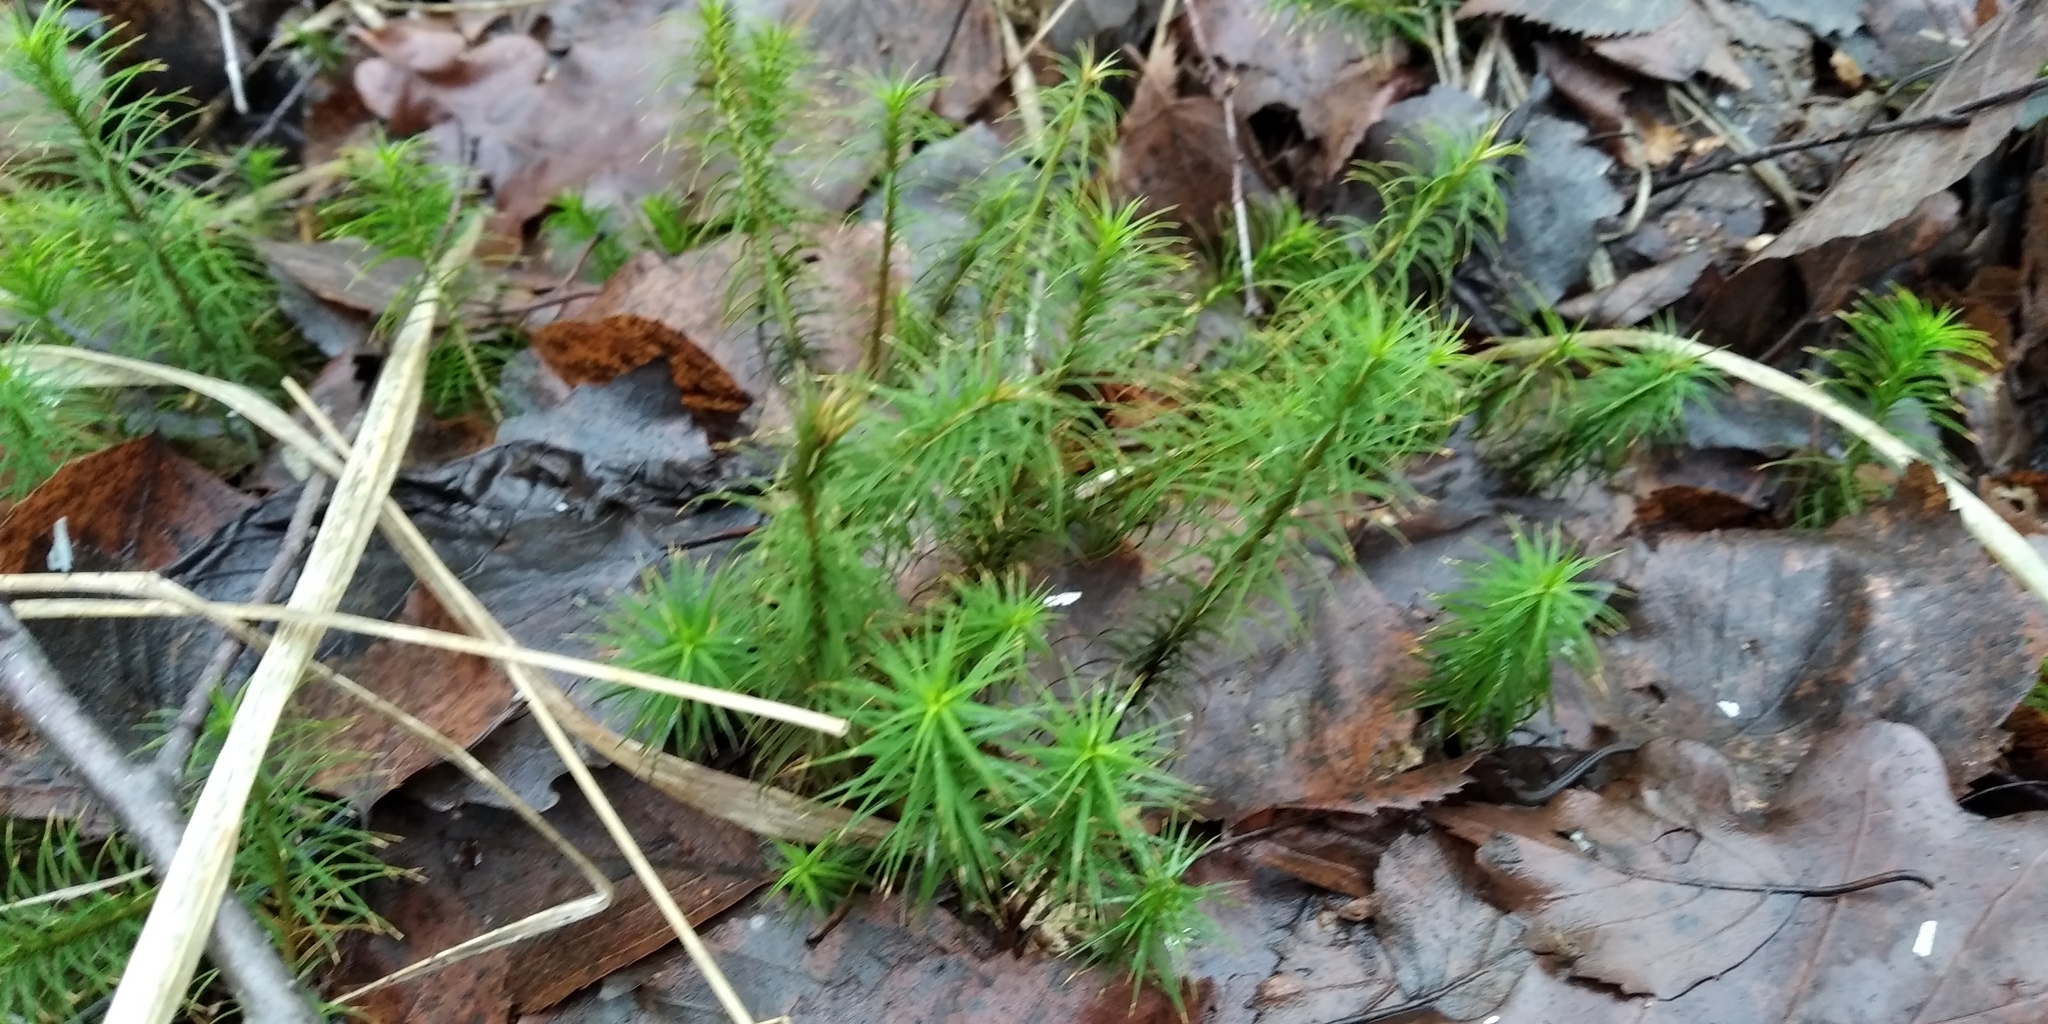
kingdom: Plantae
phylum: Bryophyta
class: Polytrichopsida
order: Polytrichales
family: Polytrichaceae
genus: Polytrichum
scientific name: Polytrichum commune
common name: Common haircap
